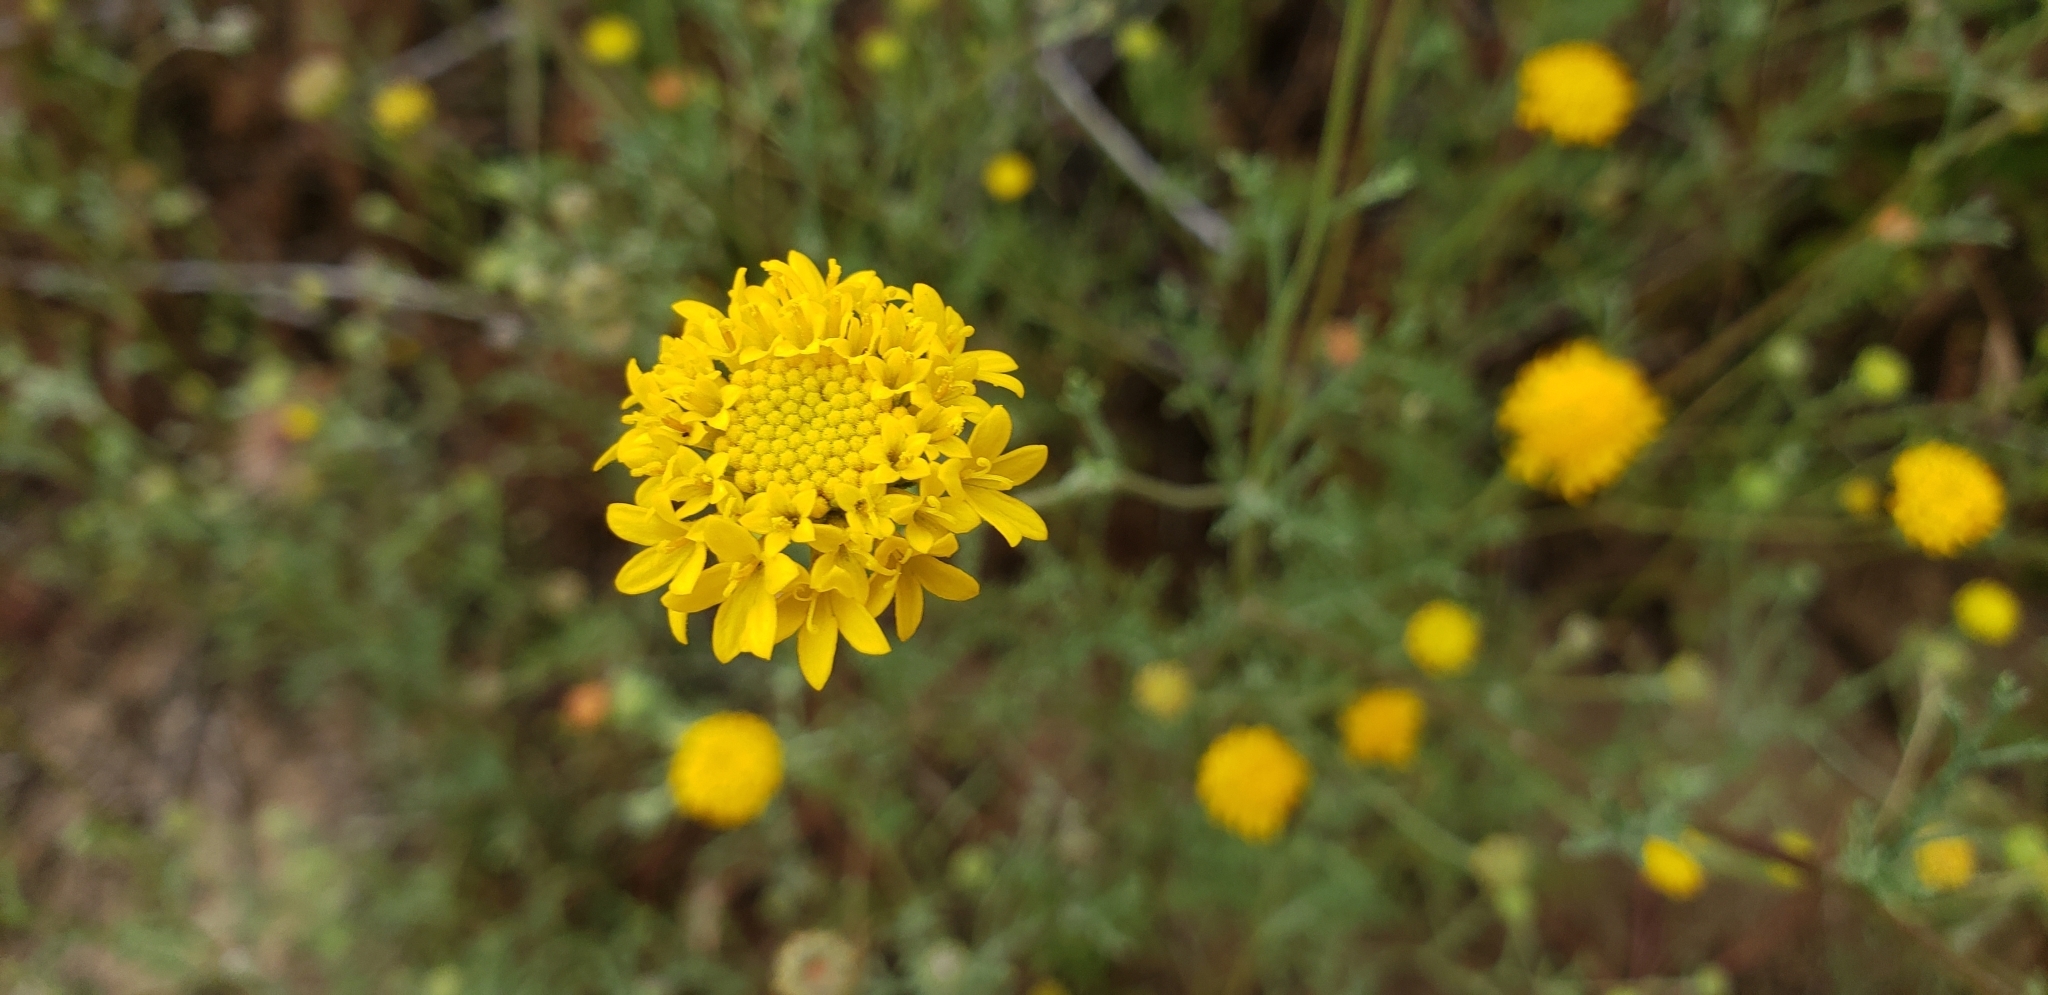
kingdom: Plantae
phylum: Tracheophyta
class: Magnoliopsida
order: Asterales
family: Asteraceae
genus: Chaenactis
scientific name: Chaenactis glabriuscula
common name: Yellow pincushion
